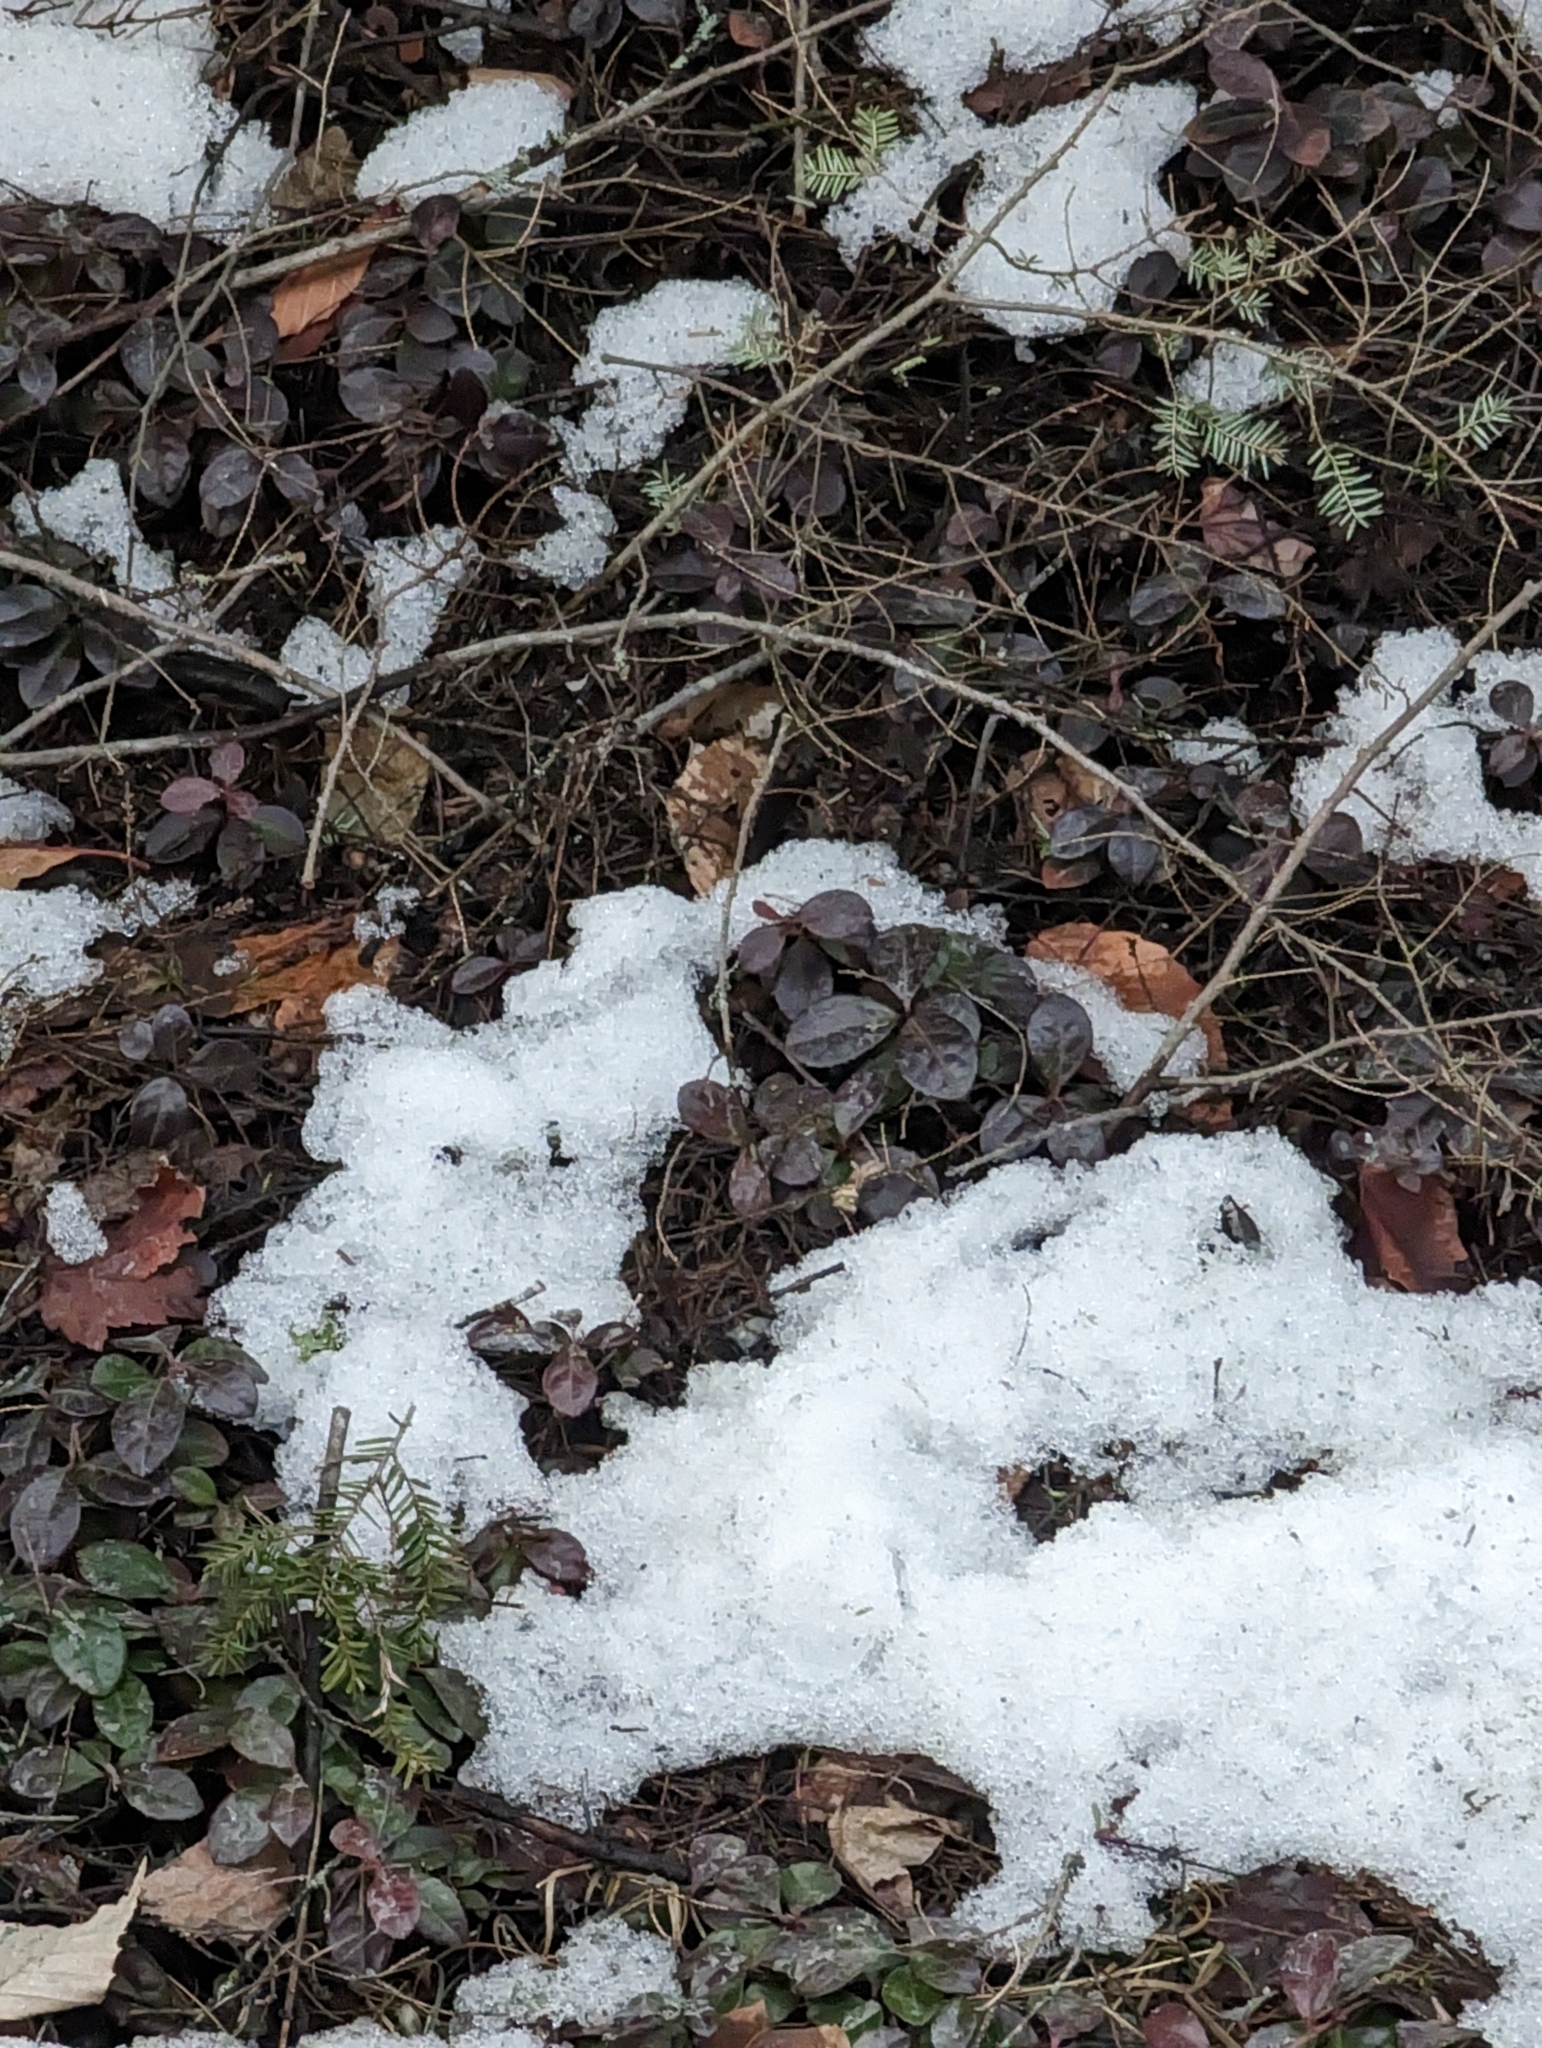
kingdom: Plantae
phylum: Tracheophyta
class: Magnoliopsida
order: Ericales
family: Ericaceae
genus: Gaultheria
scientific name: Gaultheria procumbens
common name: Checkerberry
